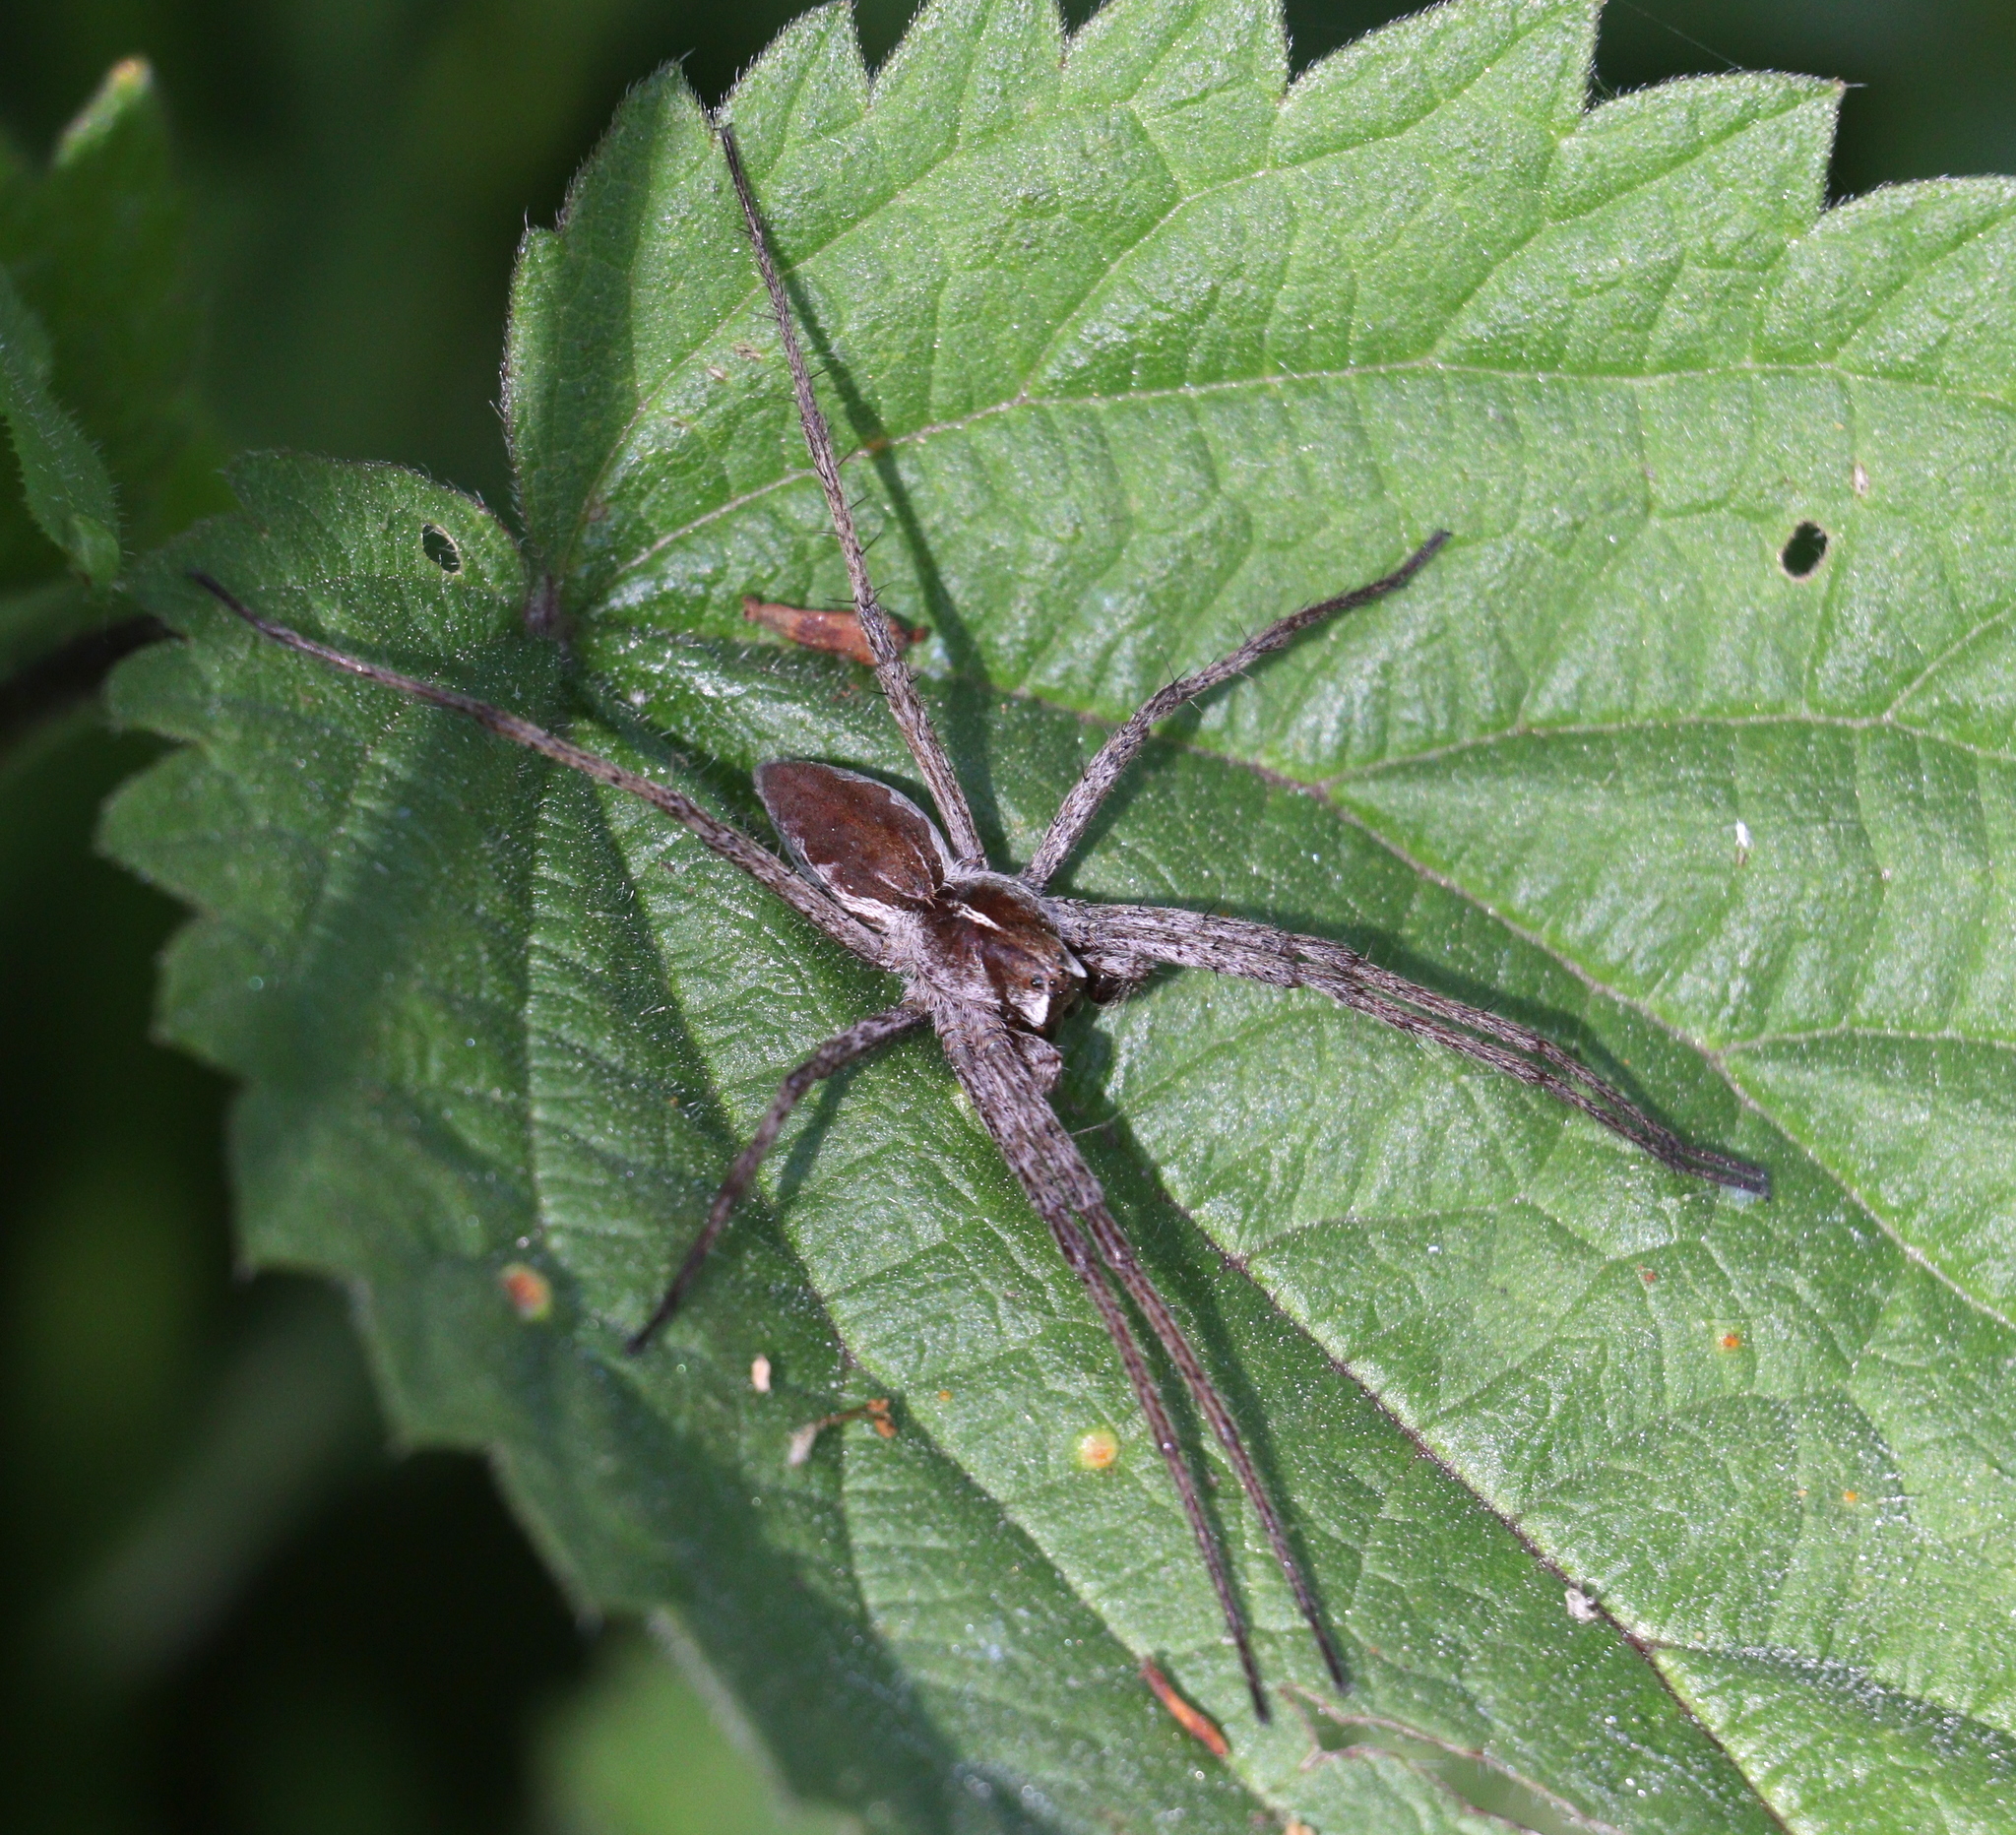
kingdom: Animalia
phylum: Arthropoda
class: Arachnida
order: Araneae
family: Pisauridae
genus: Pisaura
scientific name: Pisaura mirabilis
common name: Tent spider
